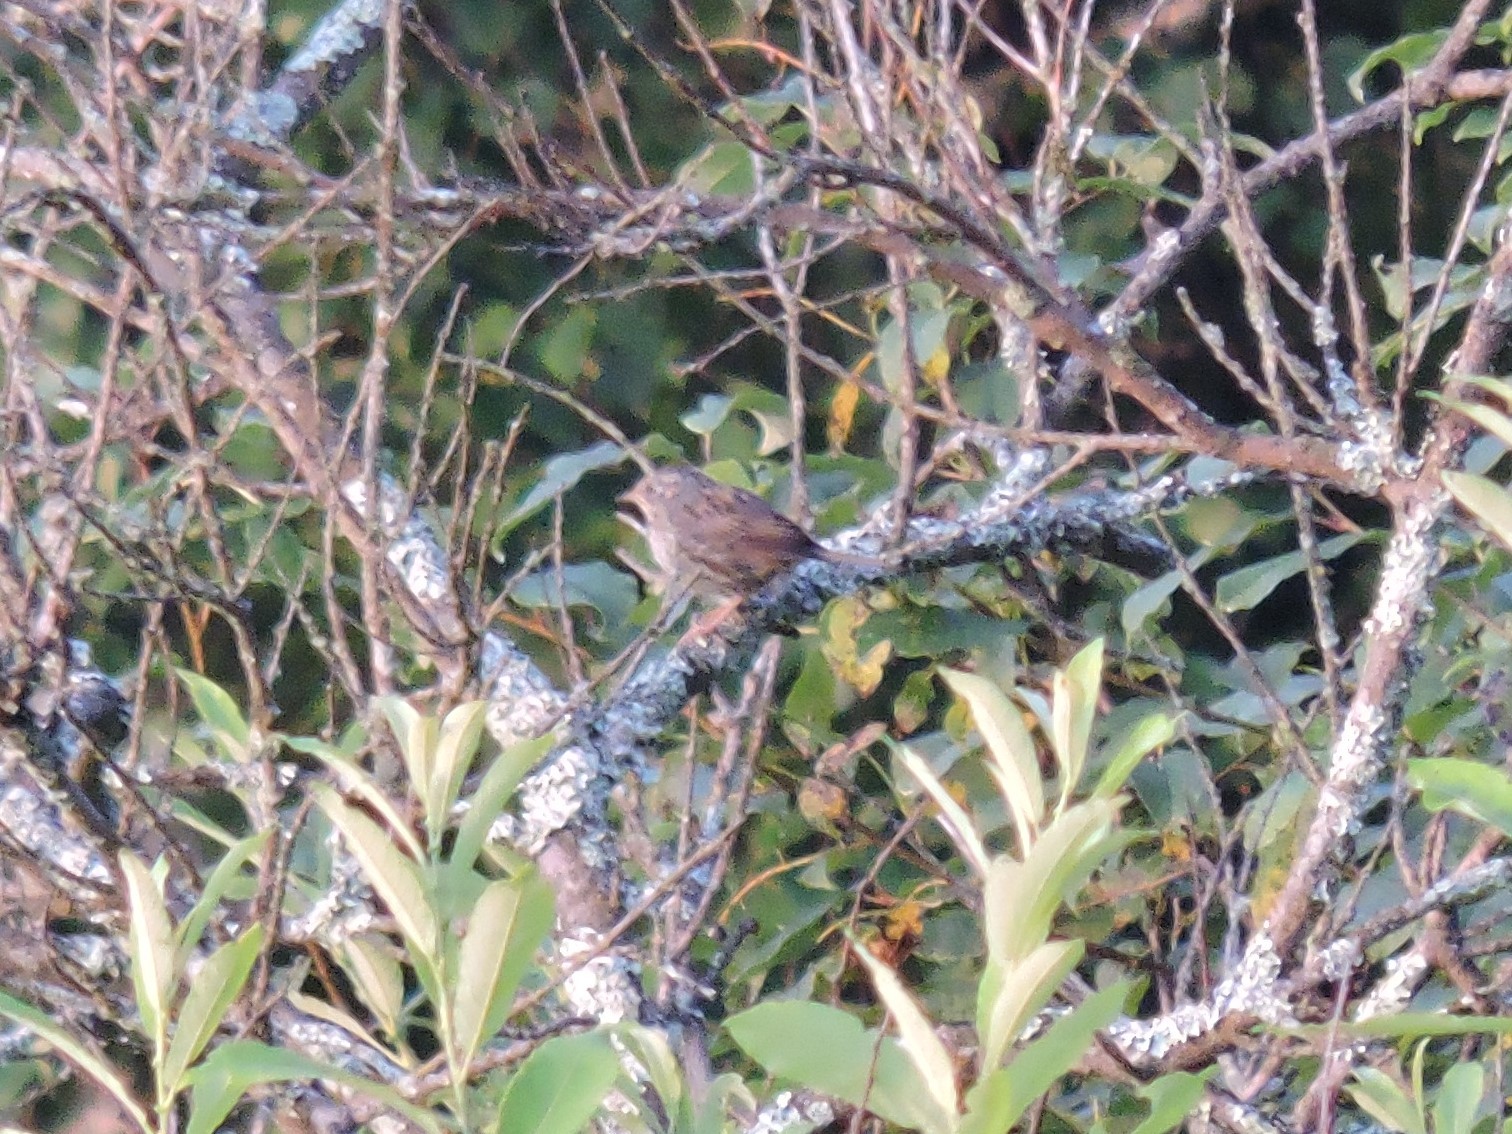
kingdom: Animalia
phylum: Chordata
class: Aves
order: Passeriformes
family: Prunellidae
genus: Prunella
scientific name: Prunella modularis
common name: Dunnock
